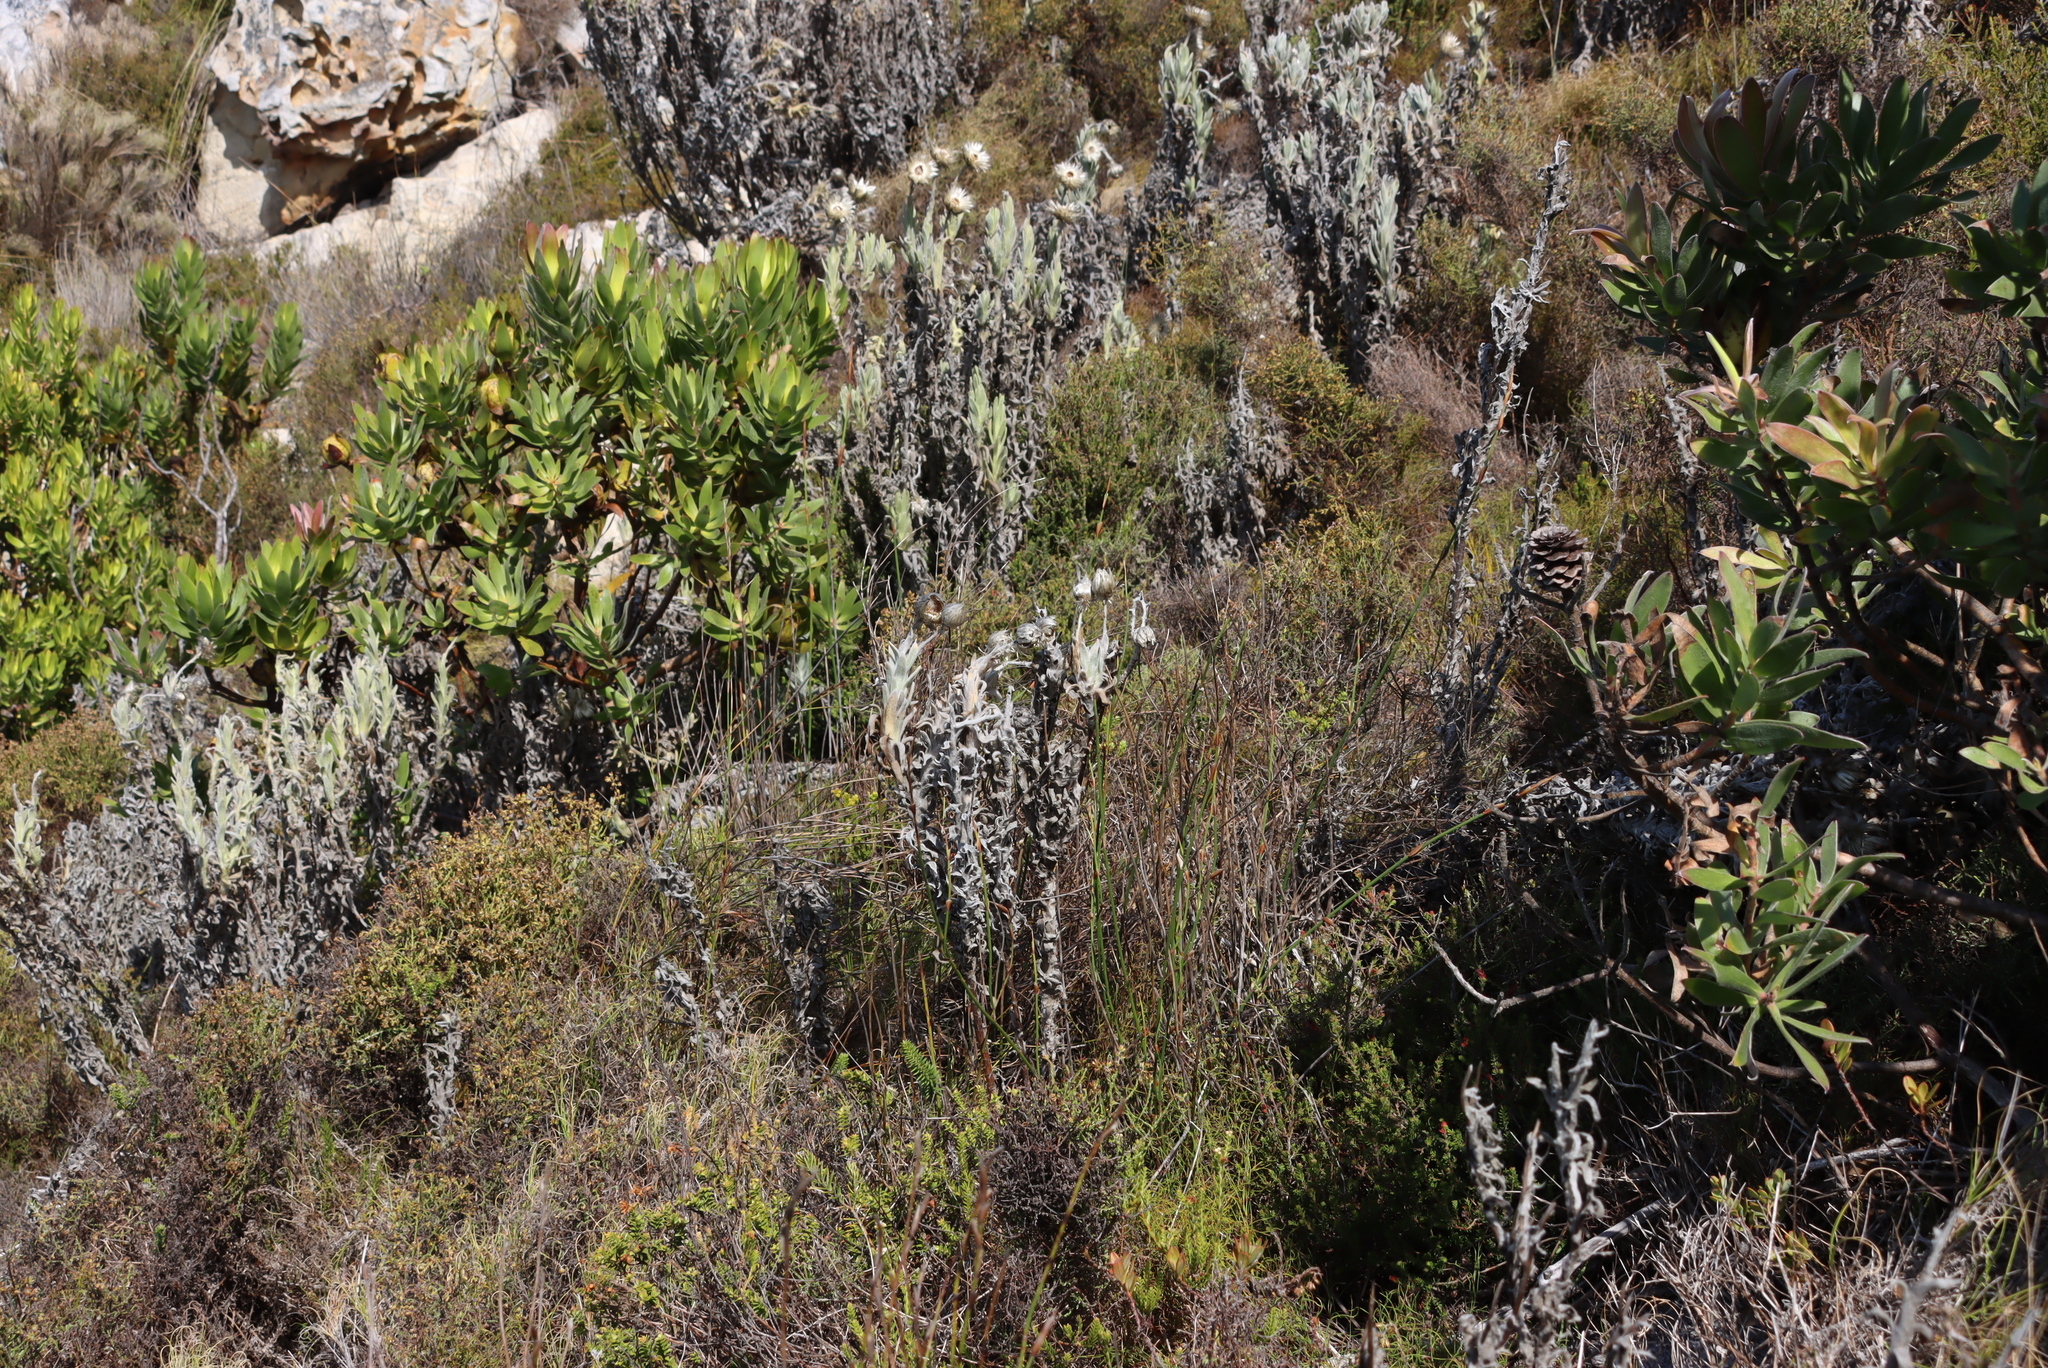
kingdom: Plantae
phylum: Tracheophyta
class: Magnoliopsida
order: Asterales
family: Asteraceae
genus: Syncarpha
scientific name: Syncarpha vestita
